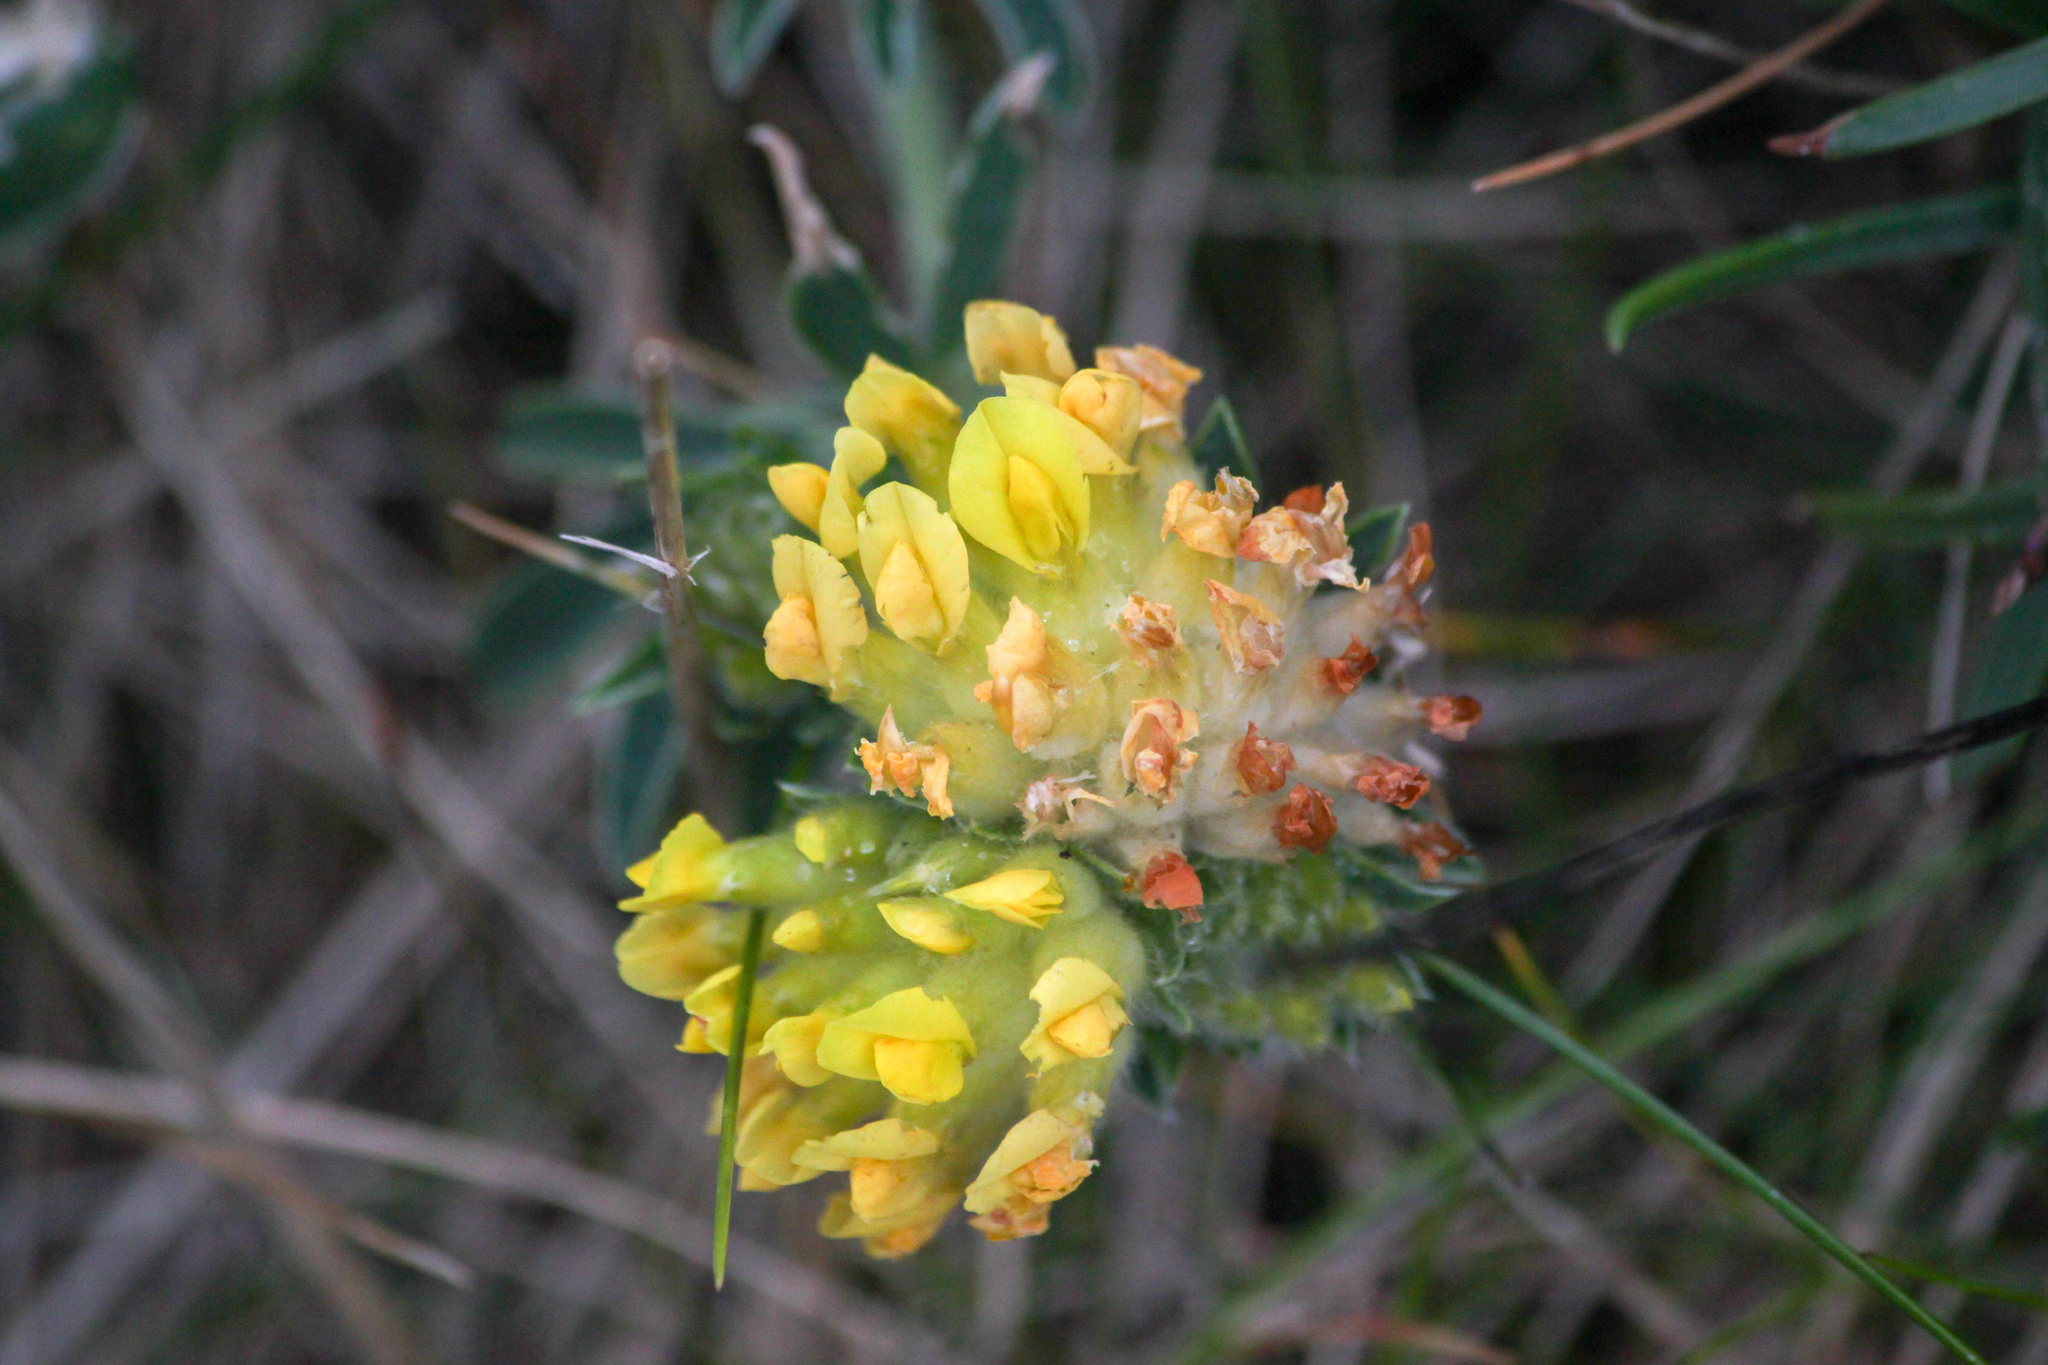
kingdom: Plantae
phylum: Tracheophyta
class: Magnoliopsida
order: Fabales
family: Fabaceae
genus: Anthyllis
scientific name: Anthyllis vulneraria
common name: Kidney vetch
